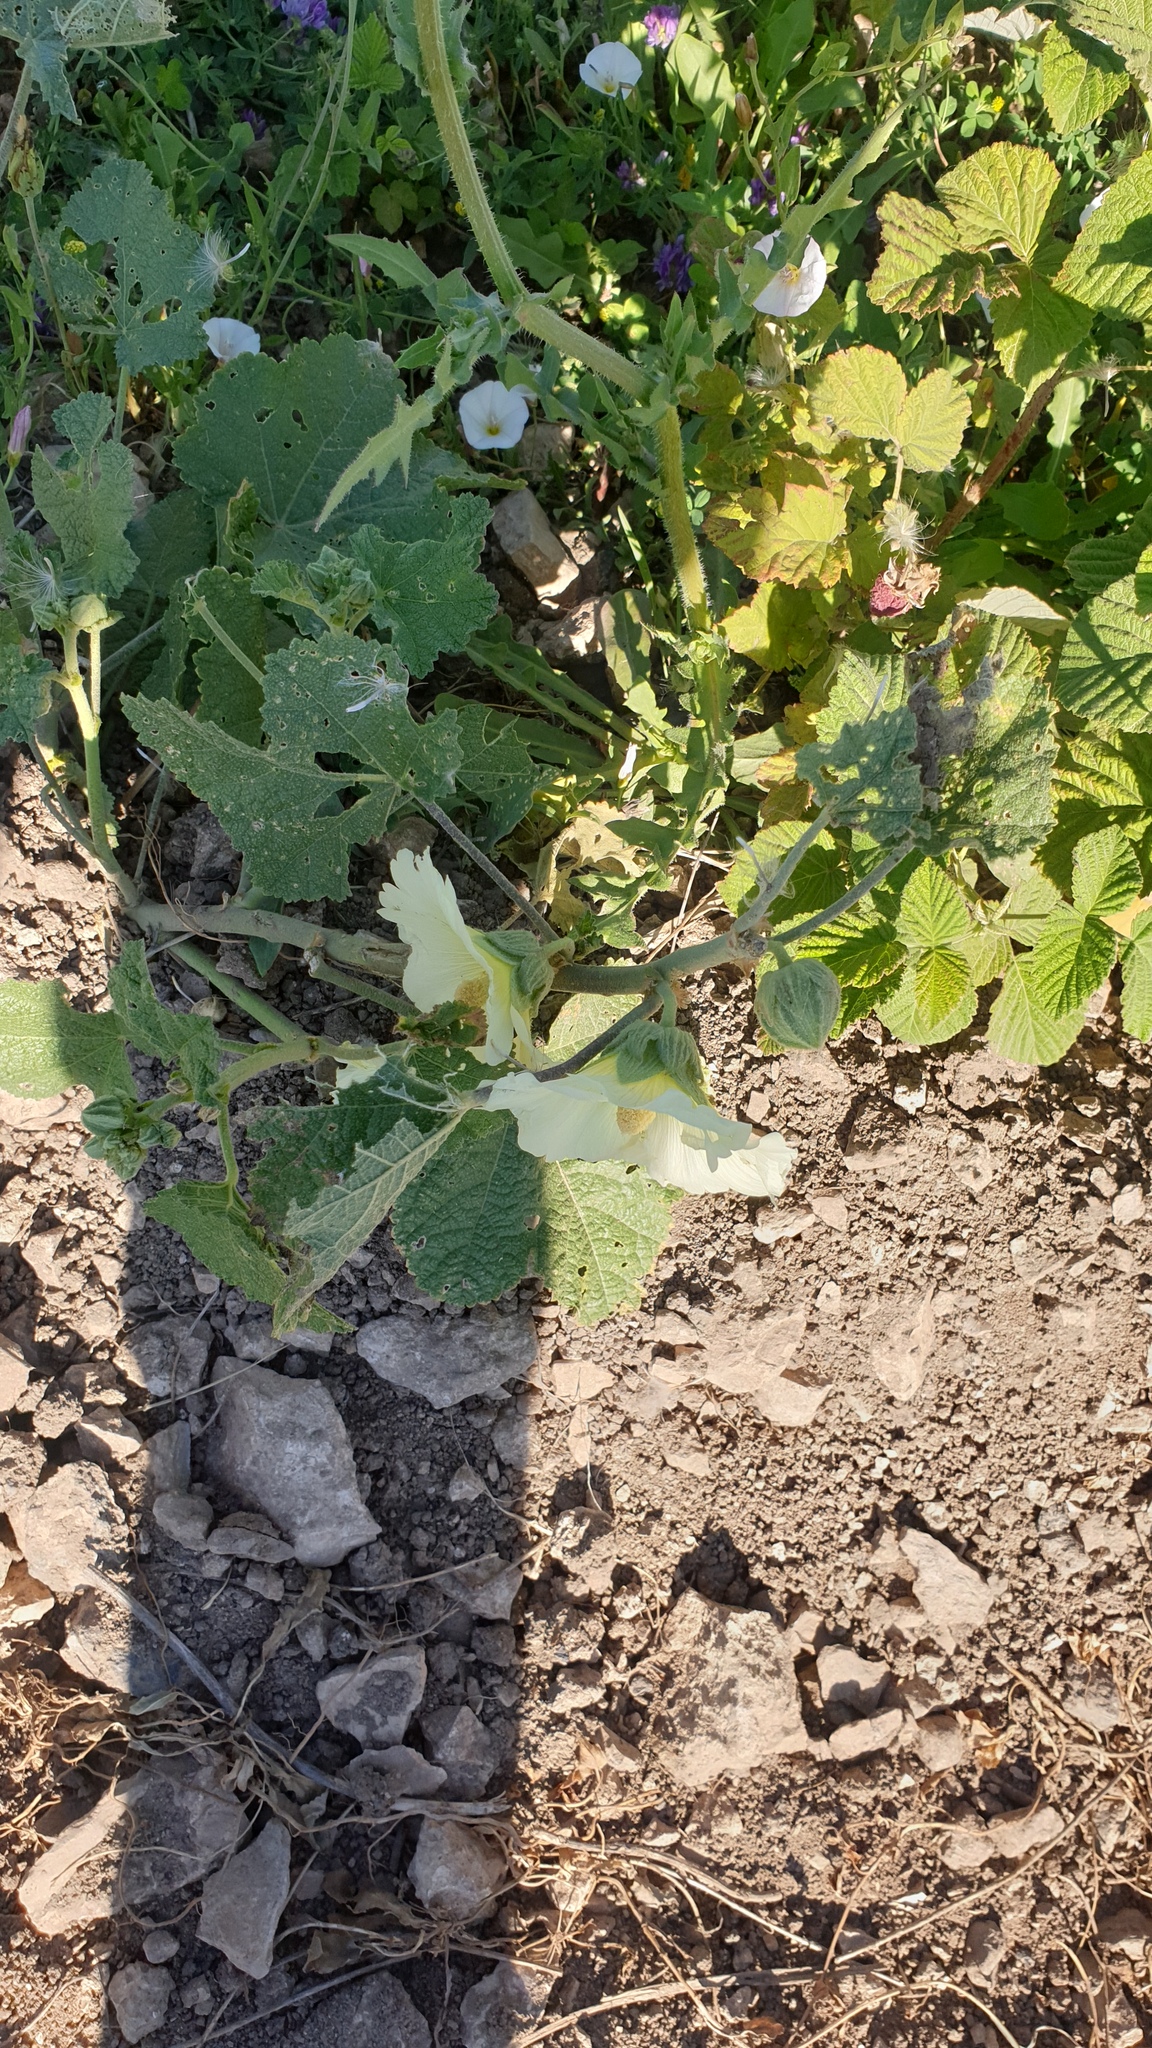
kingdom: Plantae
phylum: Tracheophyta
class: Magnoliopsida
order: Malvales
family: Malvaceae
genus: Alcea
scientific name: Alcea rugosa
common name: Russian hollyhock
